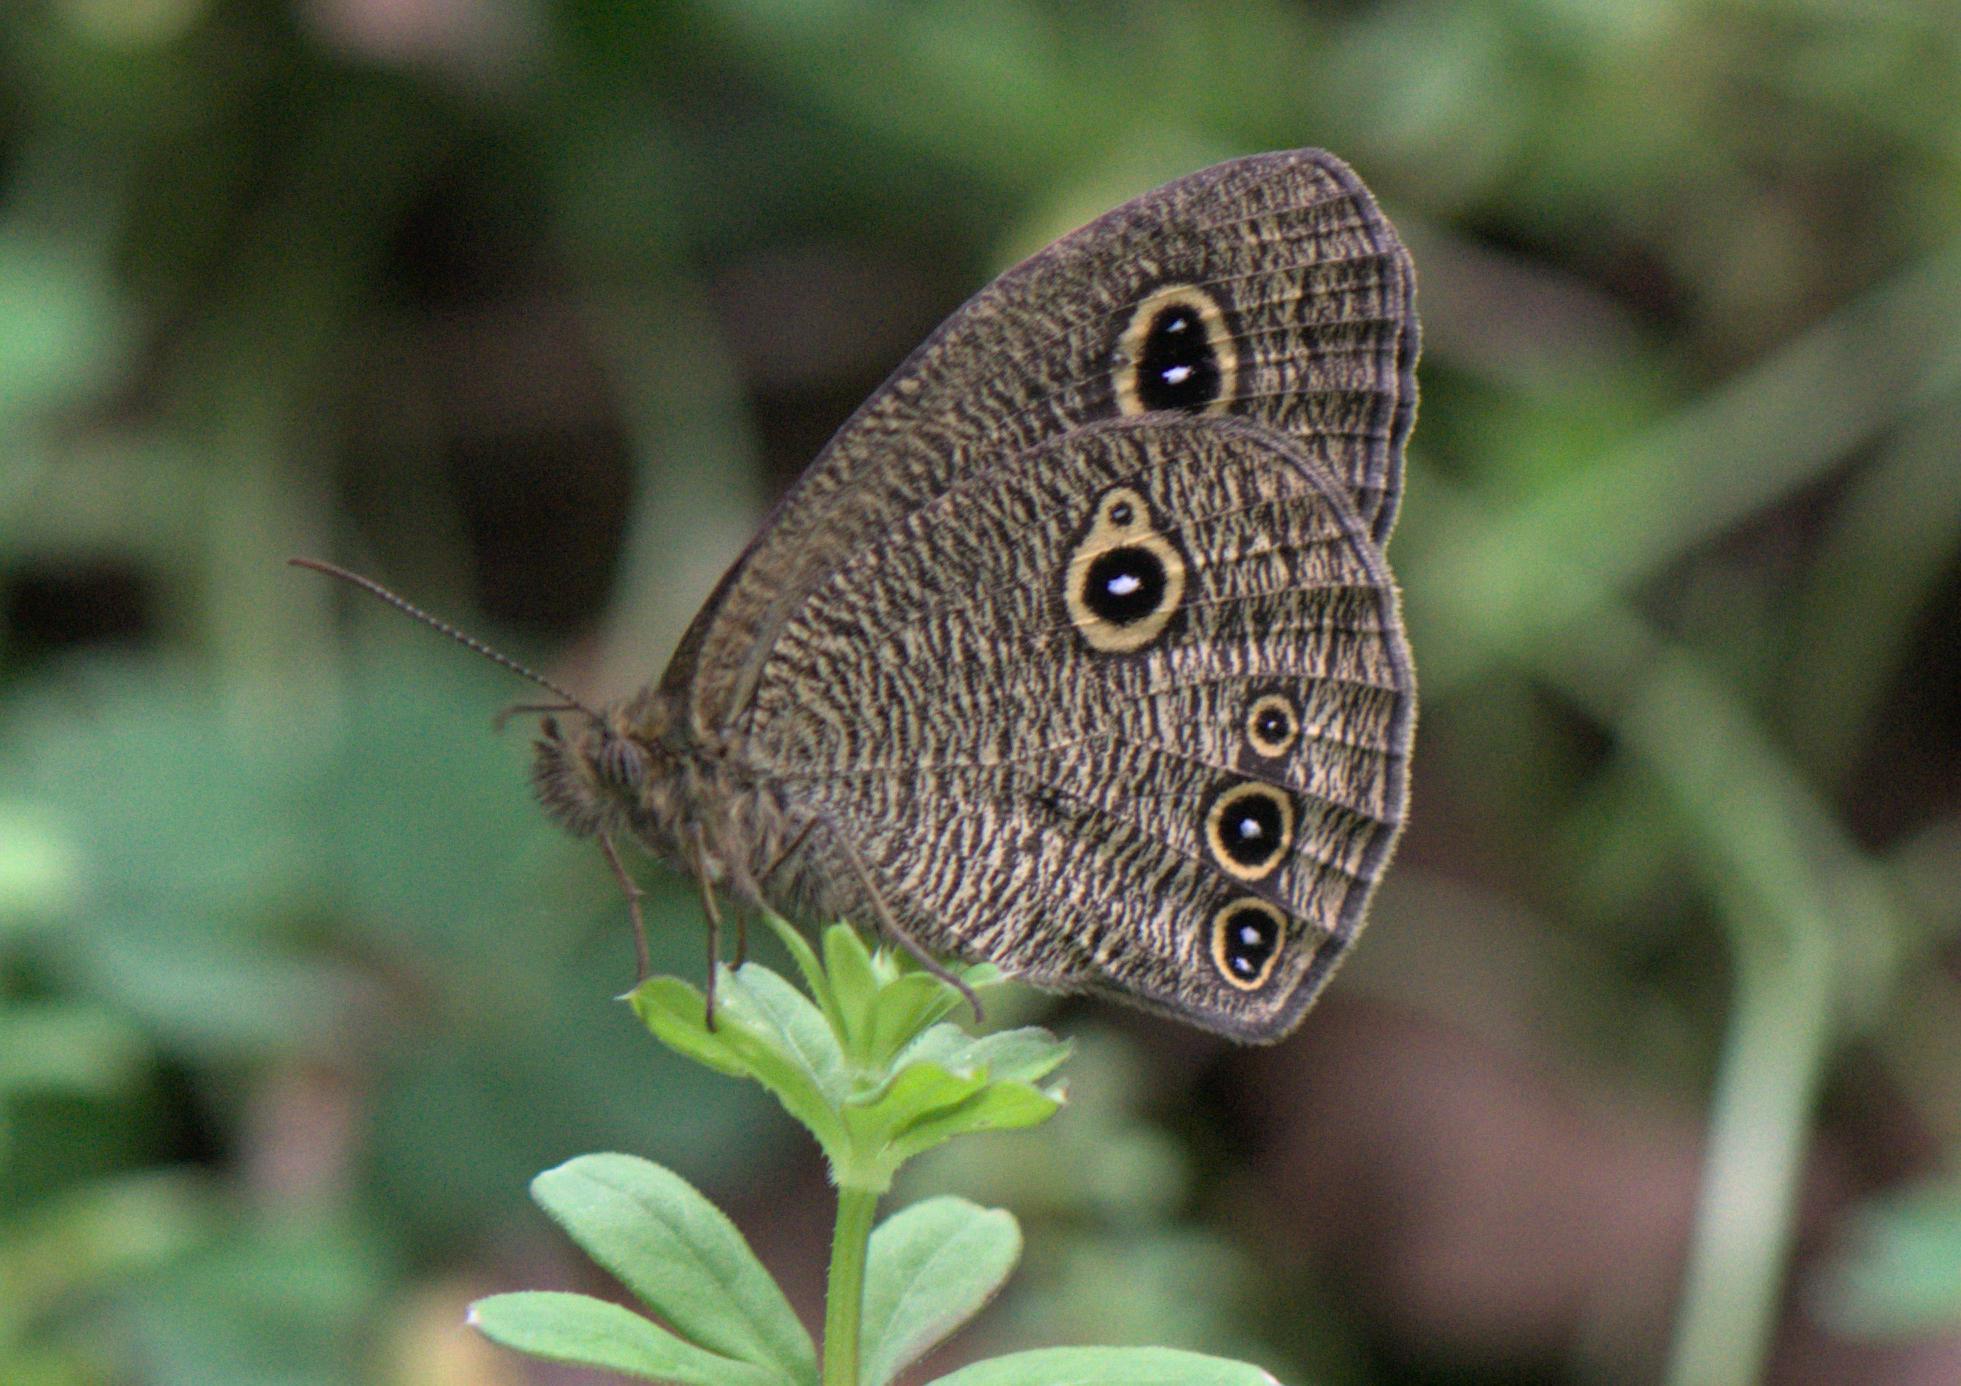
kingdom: Animalia
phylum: Arthropoda
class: Insecta
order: Lepidoptera
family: Nymphalidae
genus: Ypthima
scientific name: Ypthima nikaea
